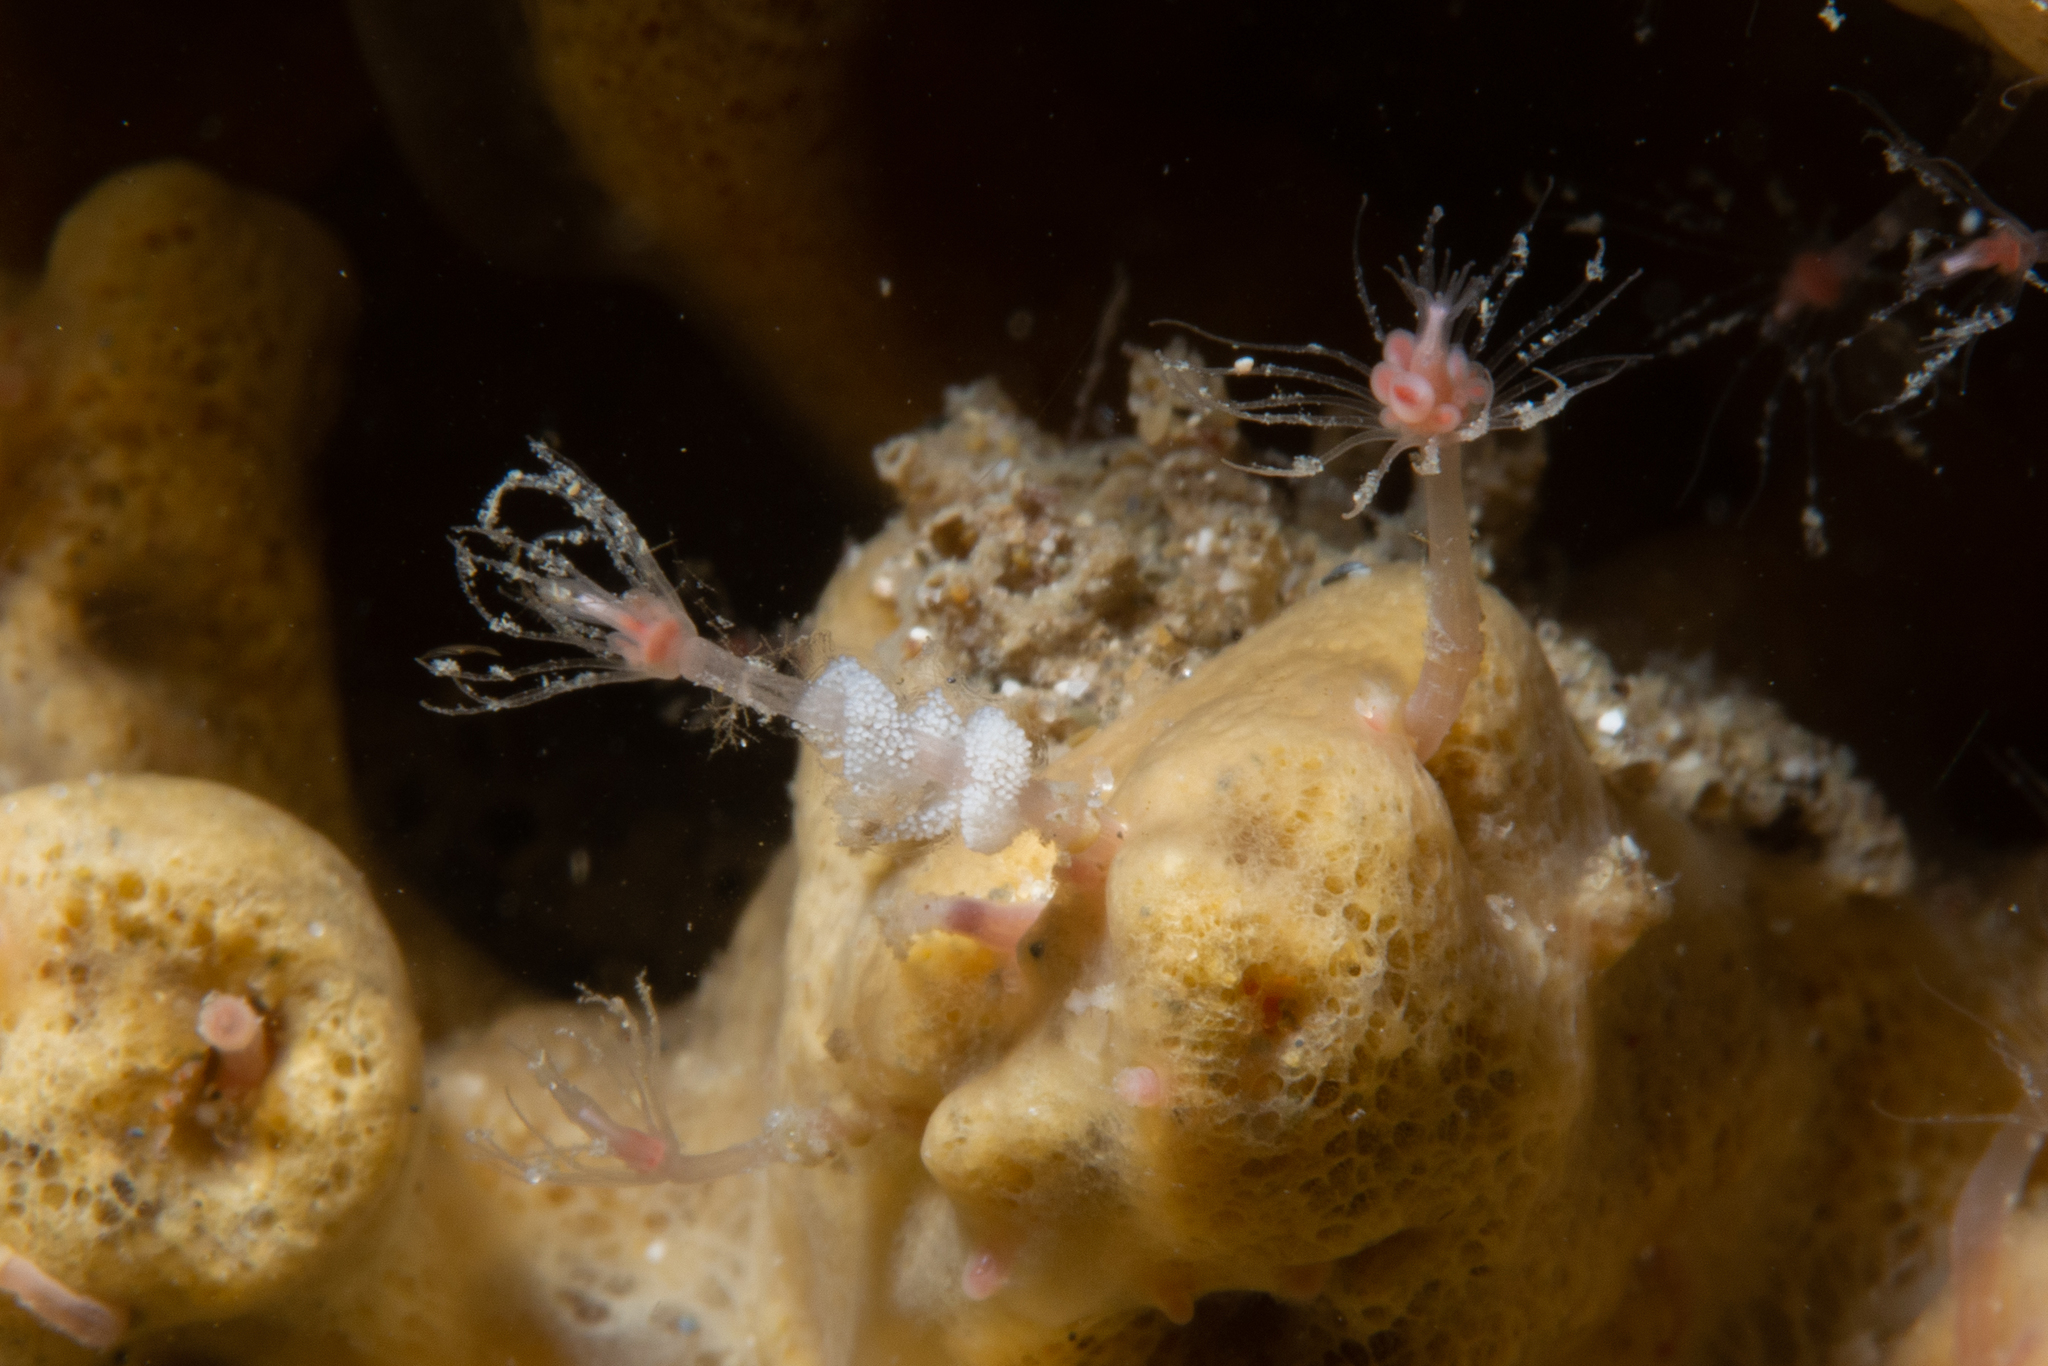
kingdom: Animalia
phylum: Mollusca
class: Gastropoda
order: Nudibranchia
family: Trinchesiidae
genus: Trinchesia
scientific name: Trinchesia kuiteri
